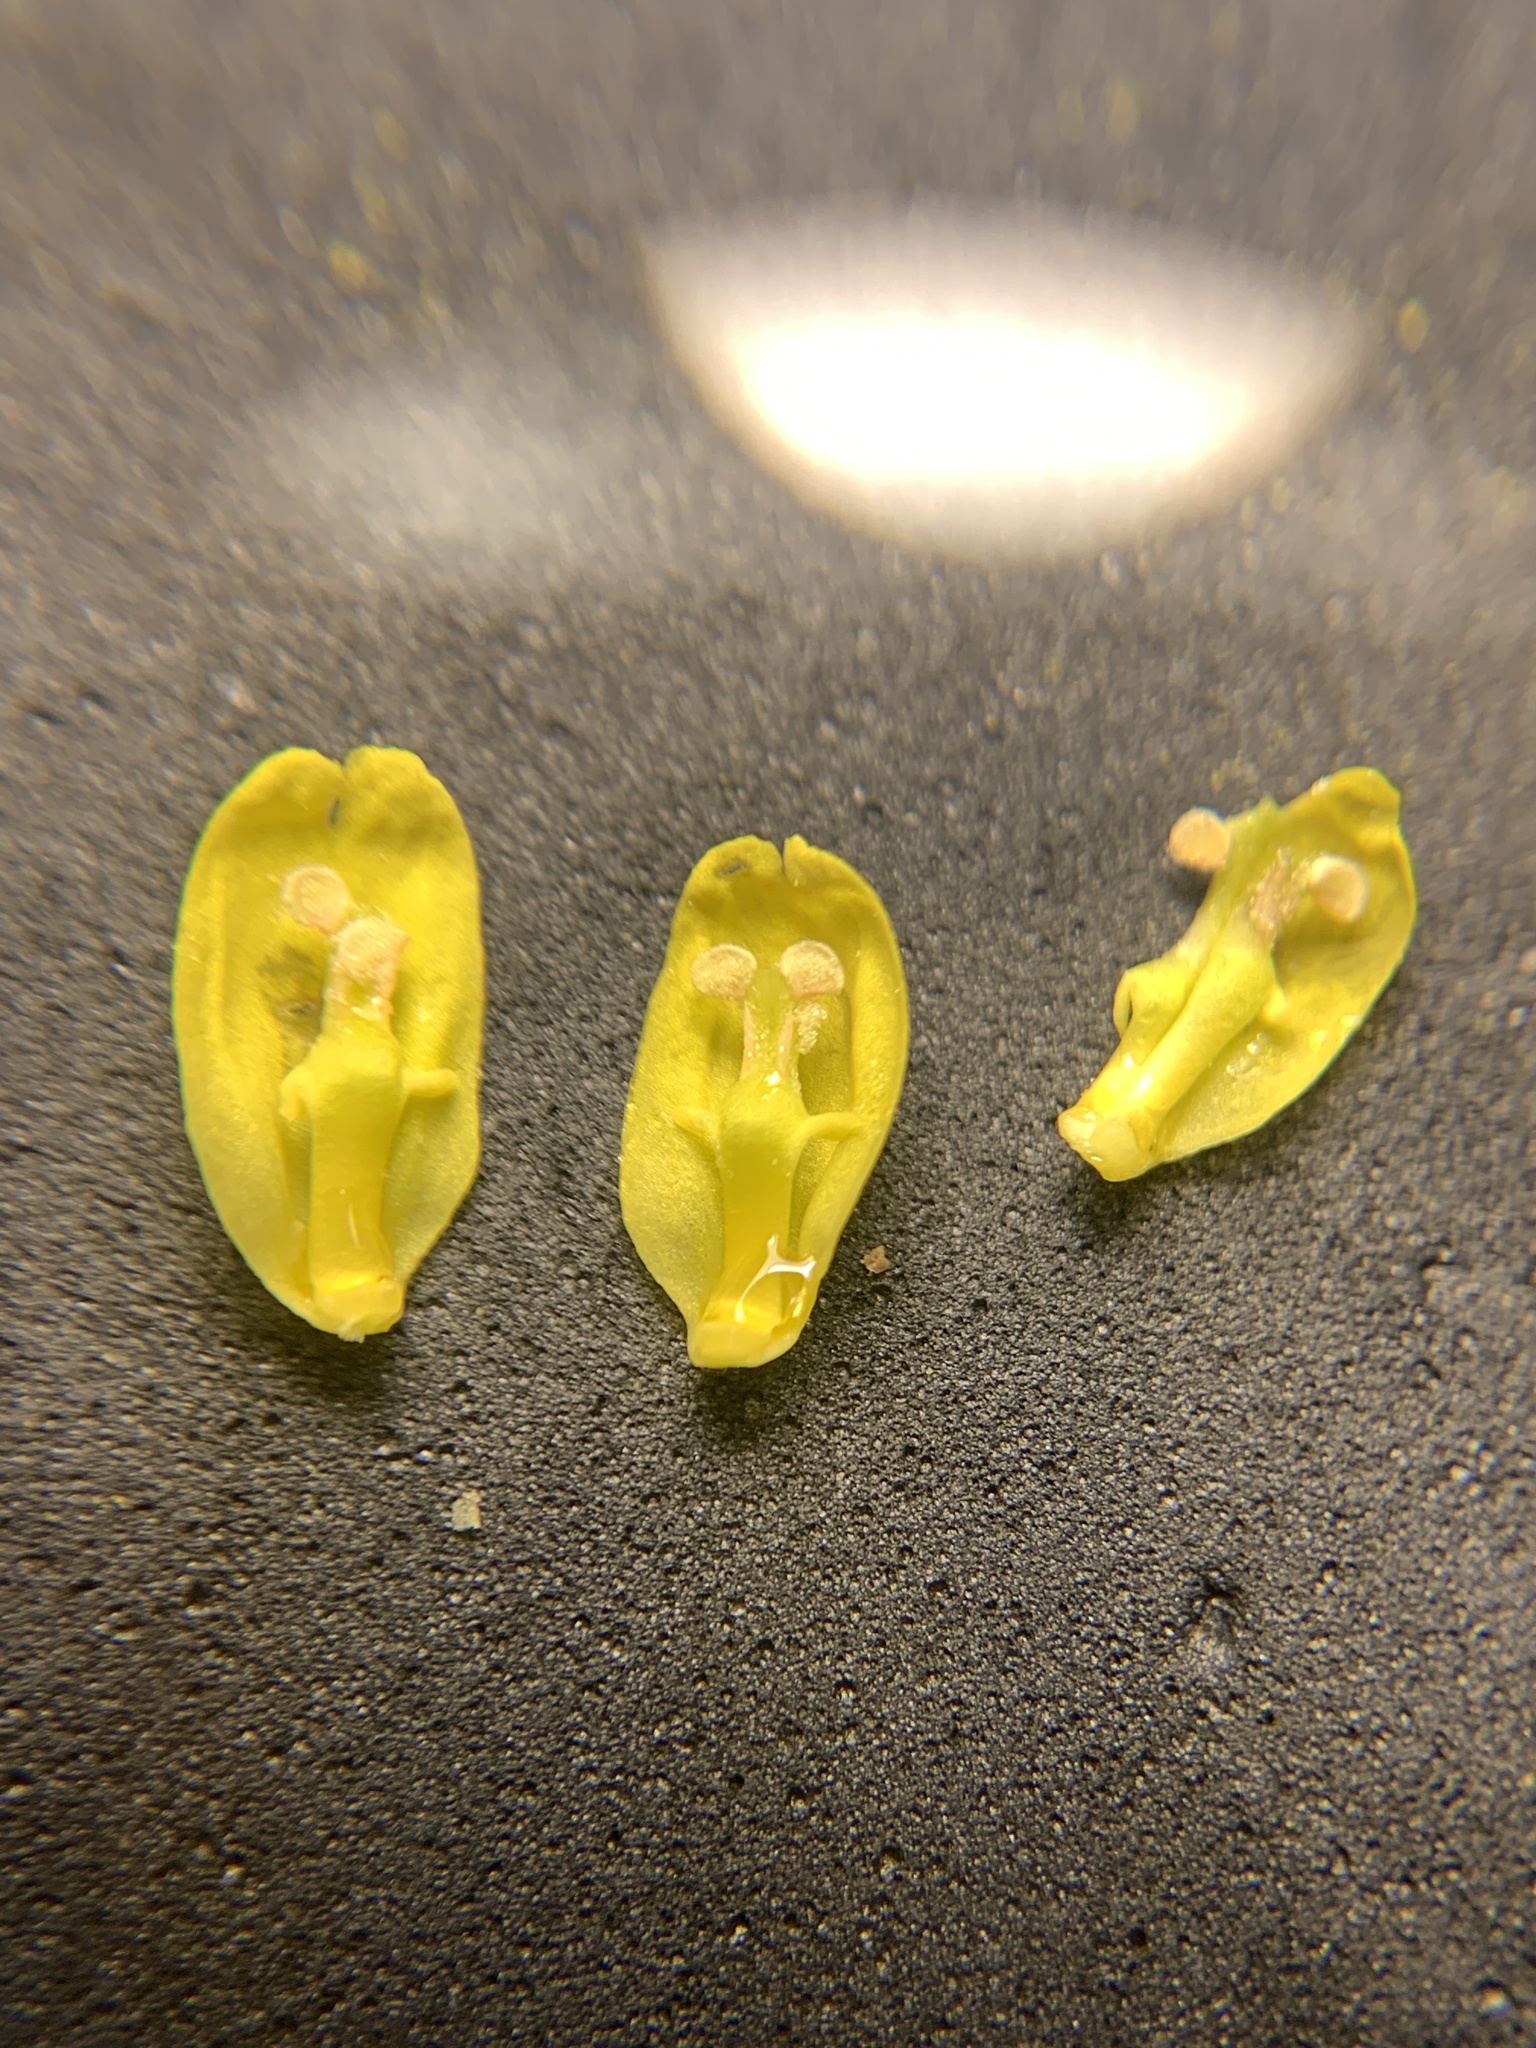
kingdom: Plantae
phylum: Tracheophyta
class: Magnoliopsida
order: Ranunculales
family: Berberidaceae
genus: Mahonia
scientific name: Mahonia aquifolium
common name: Oregon-grape
